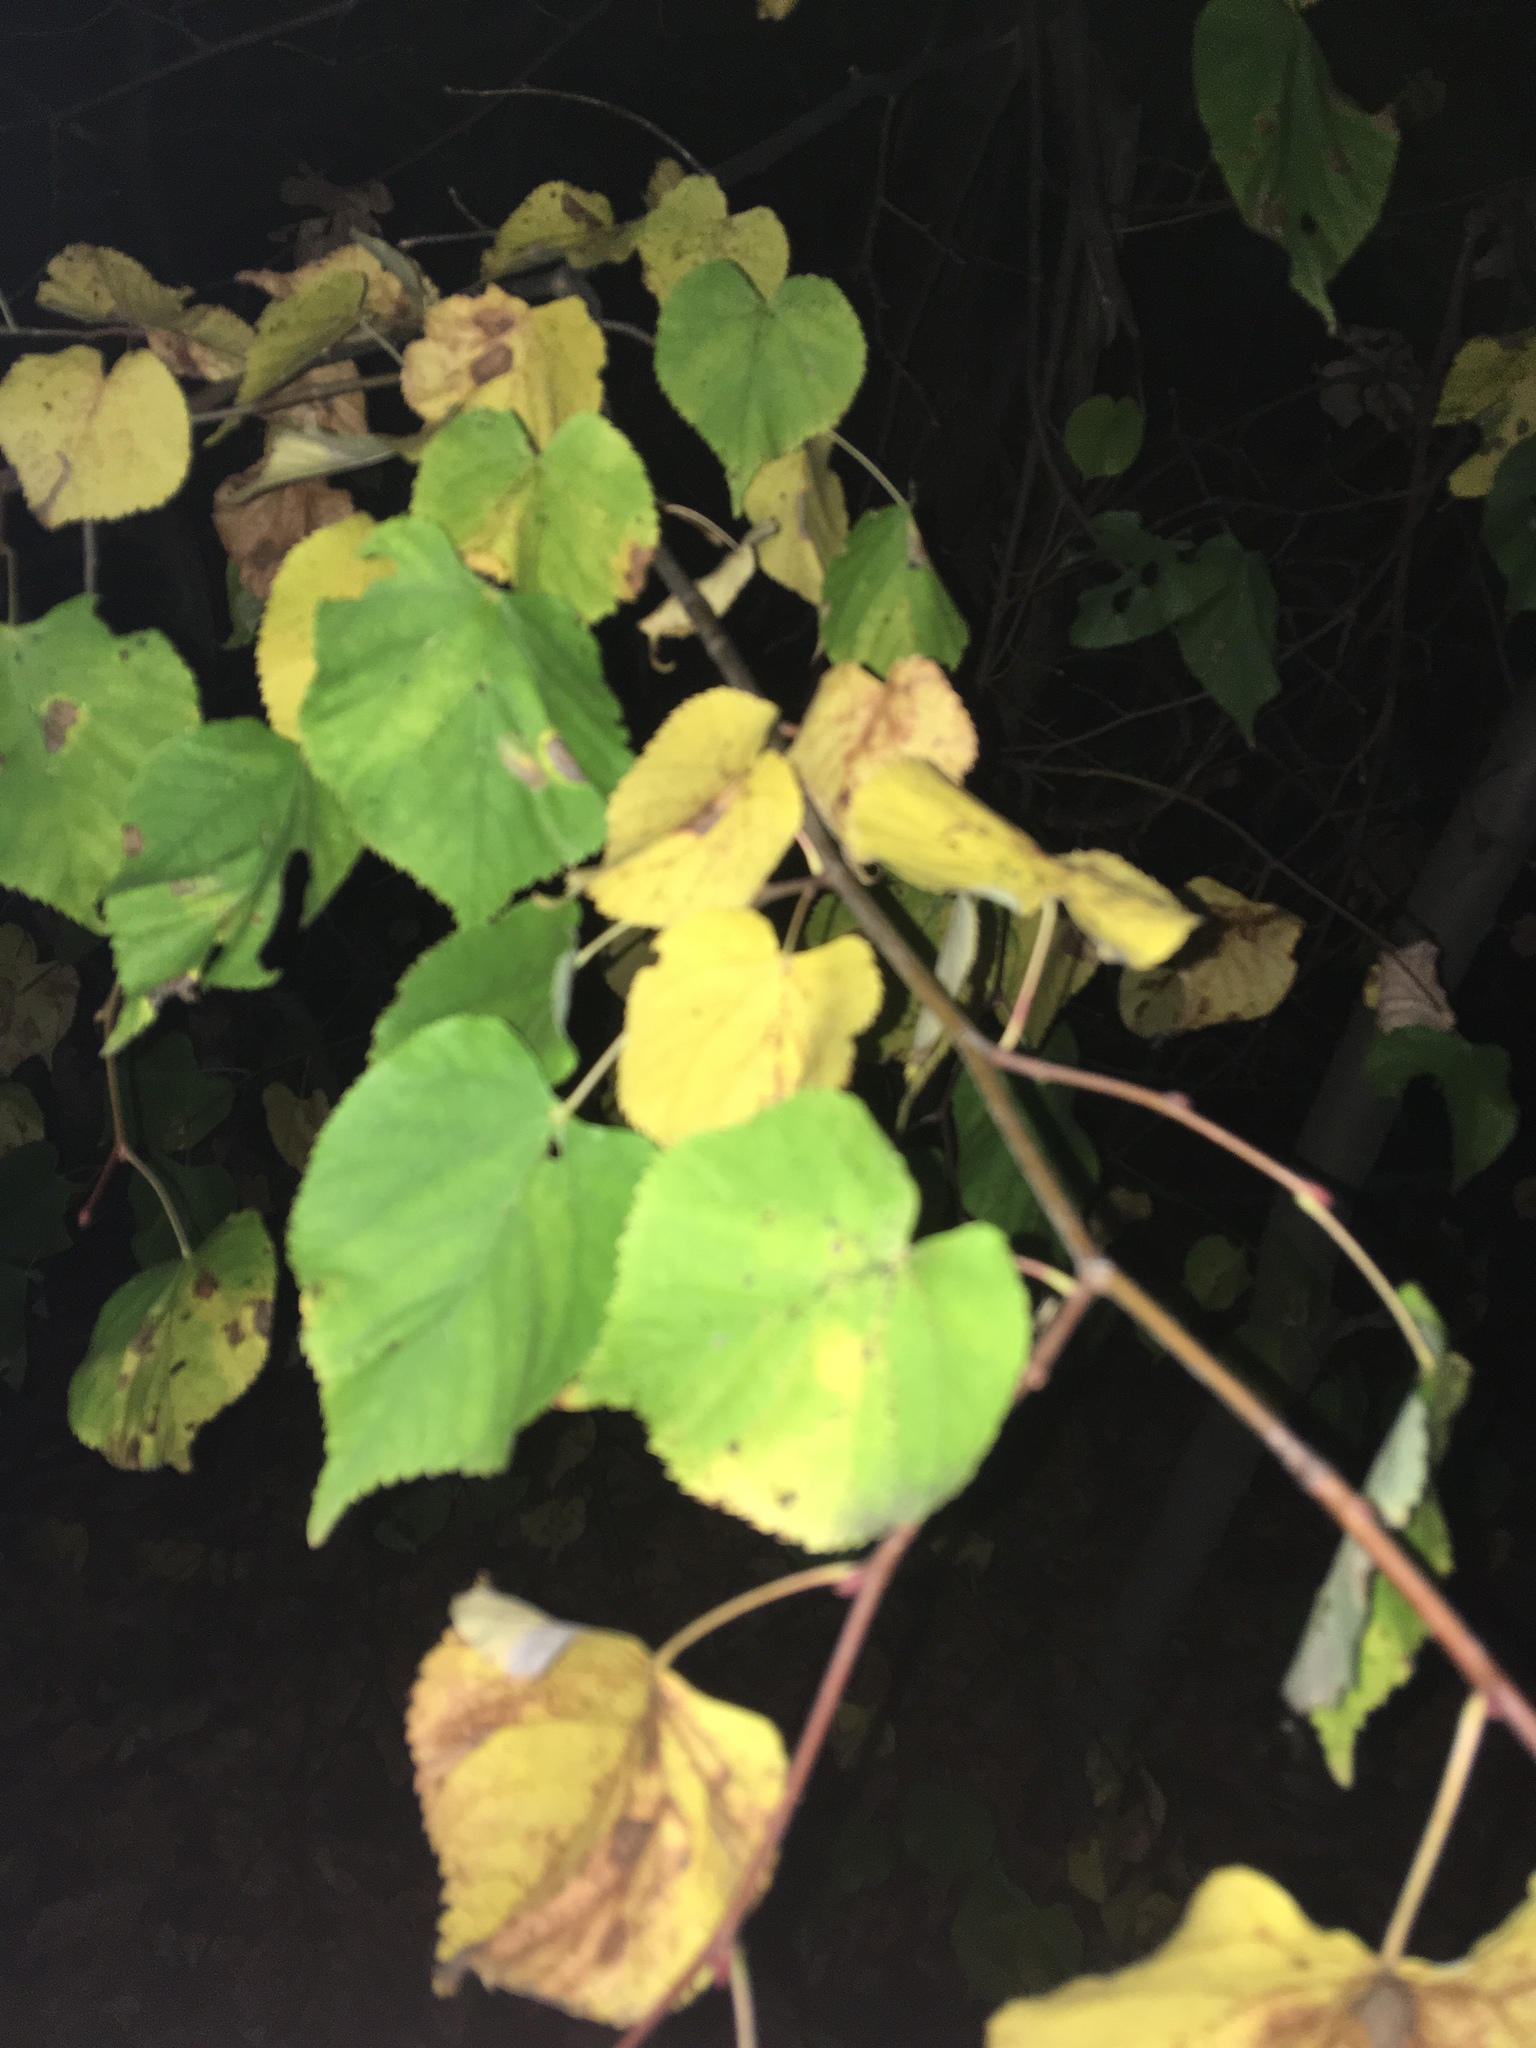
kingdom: Plantae
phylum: Tracheophyta
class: Magnoliopsida
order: Malvales
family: Malvaceae
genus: Tilia
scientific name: Tilia cordata
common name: Small-leaved lime
